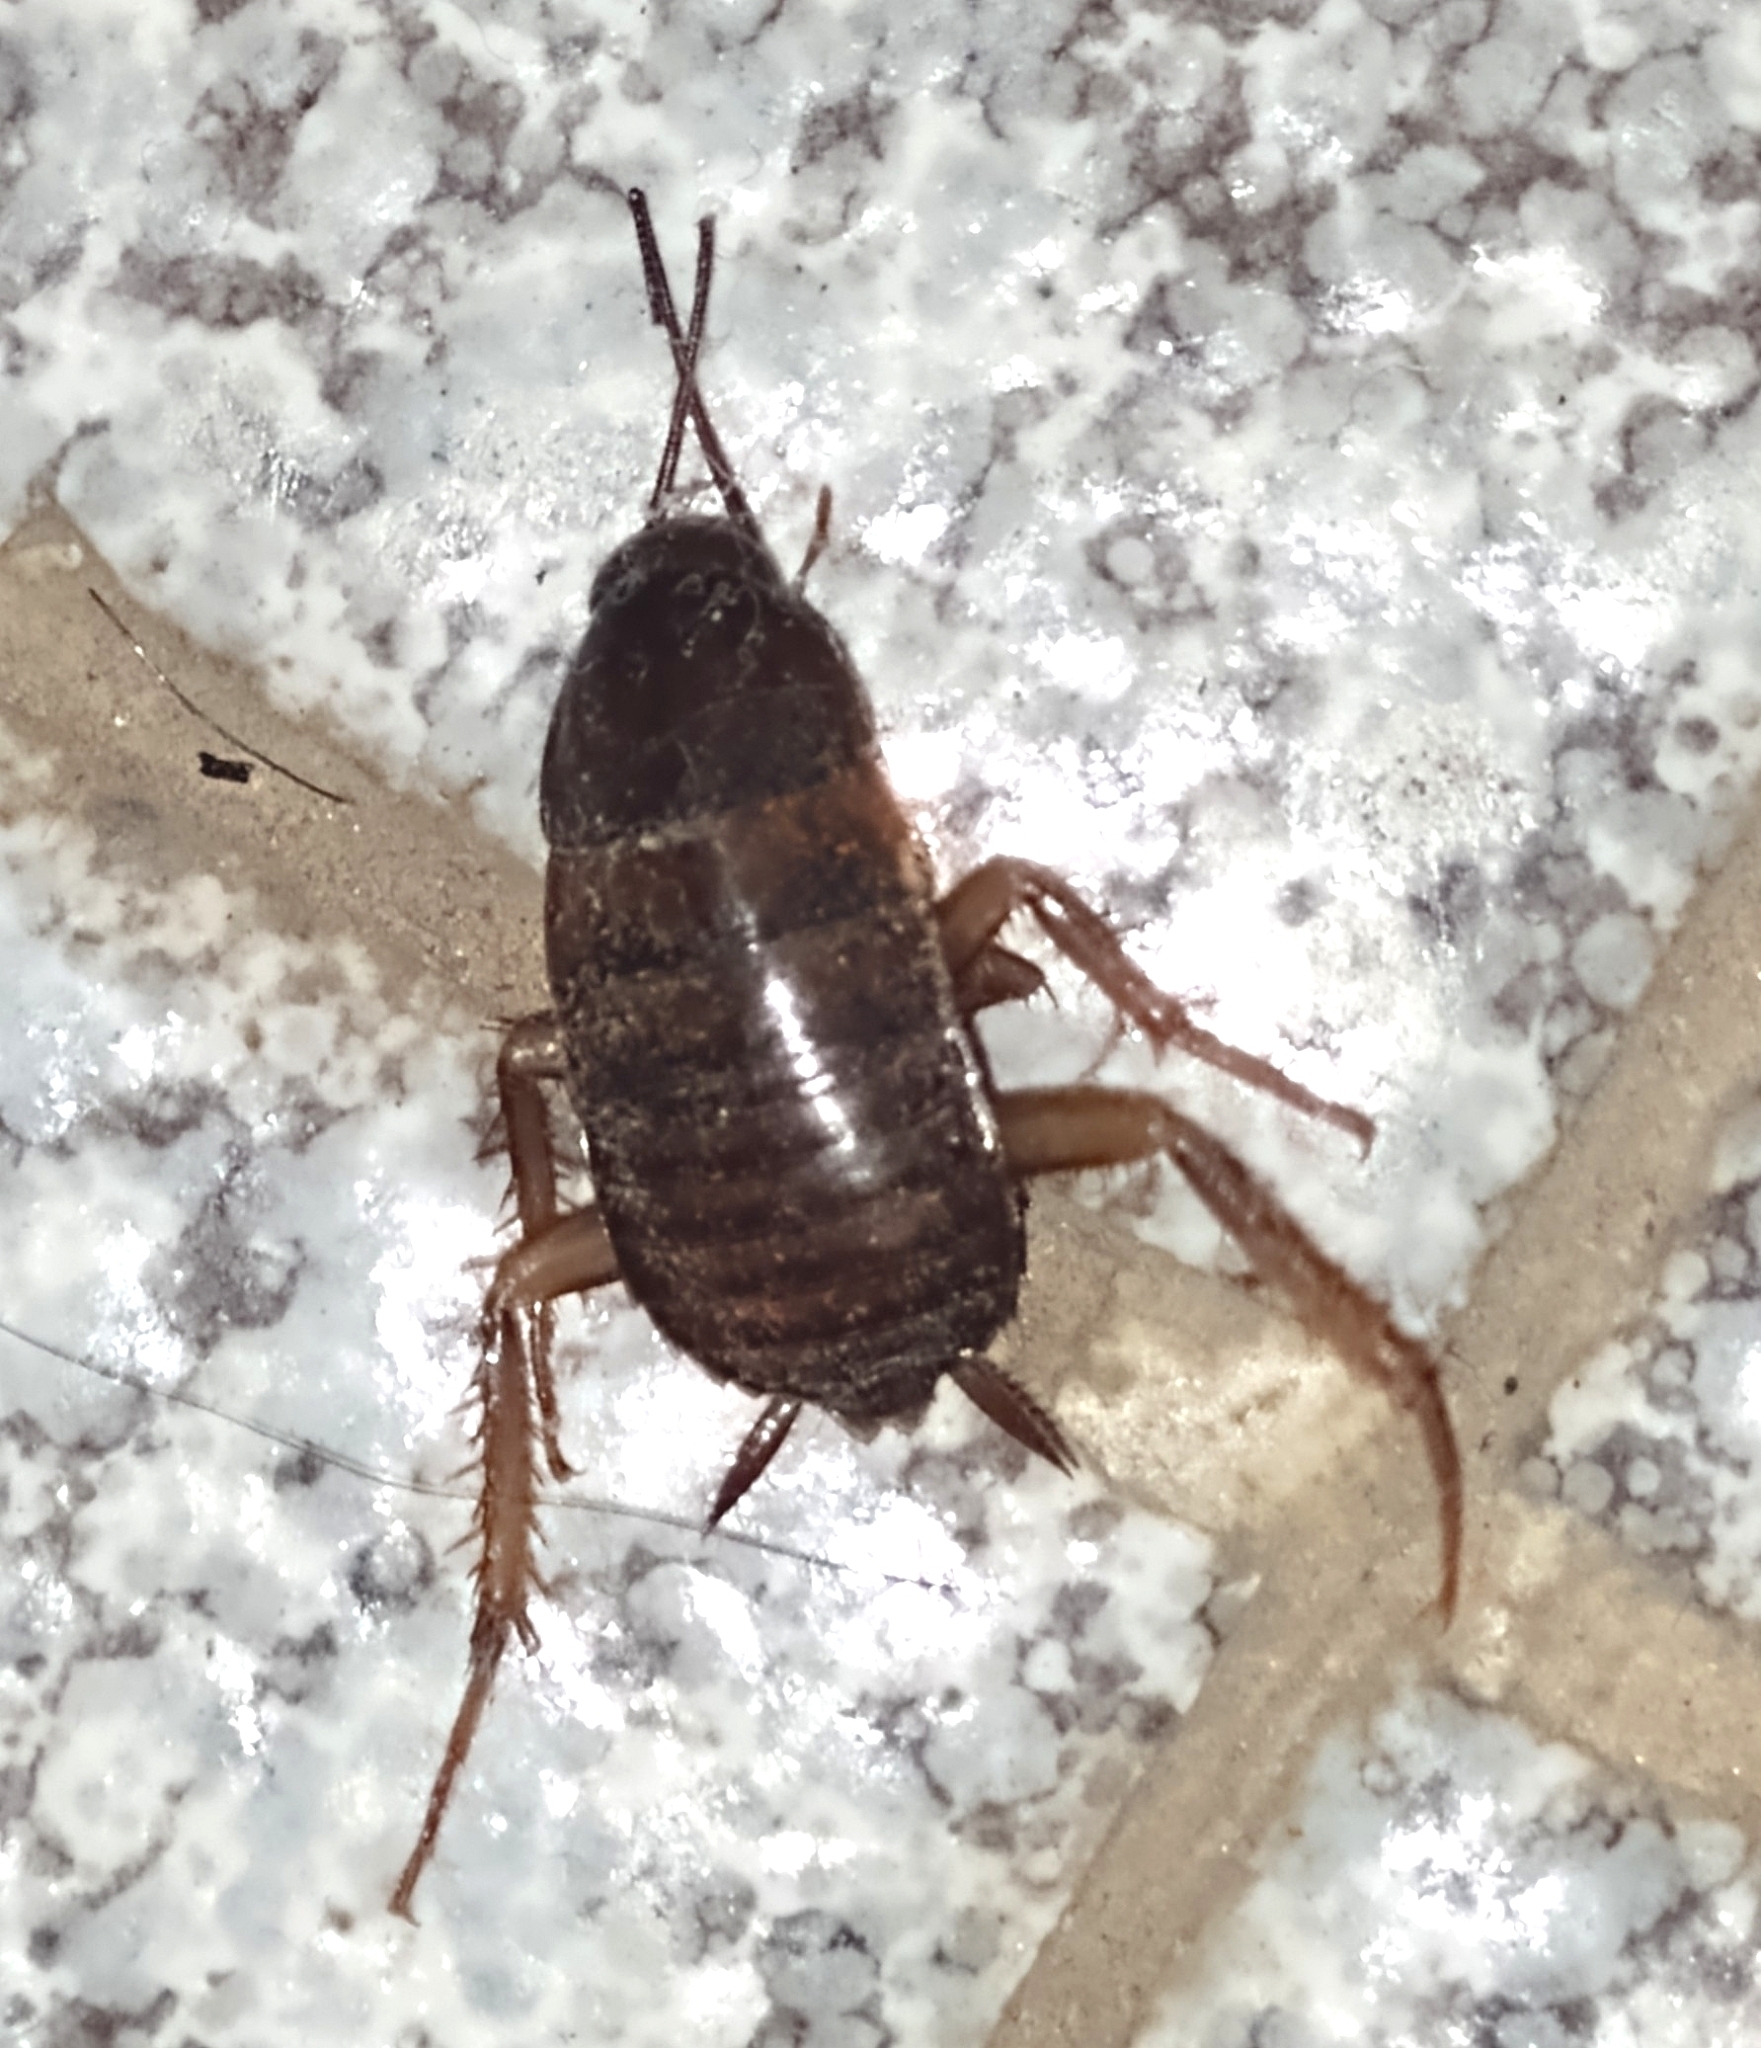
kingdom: Animalia
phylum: Arthropoda
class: Insecta
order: Blattodea
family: Blattidae
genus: Periplaneta
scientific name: Periplaneta americana
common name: American cockroach
